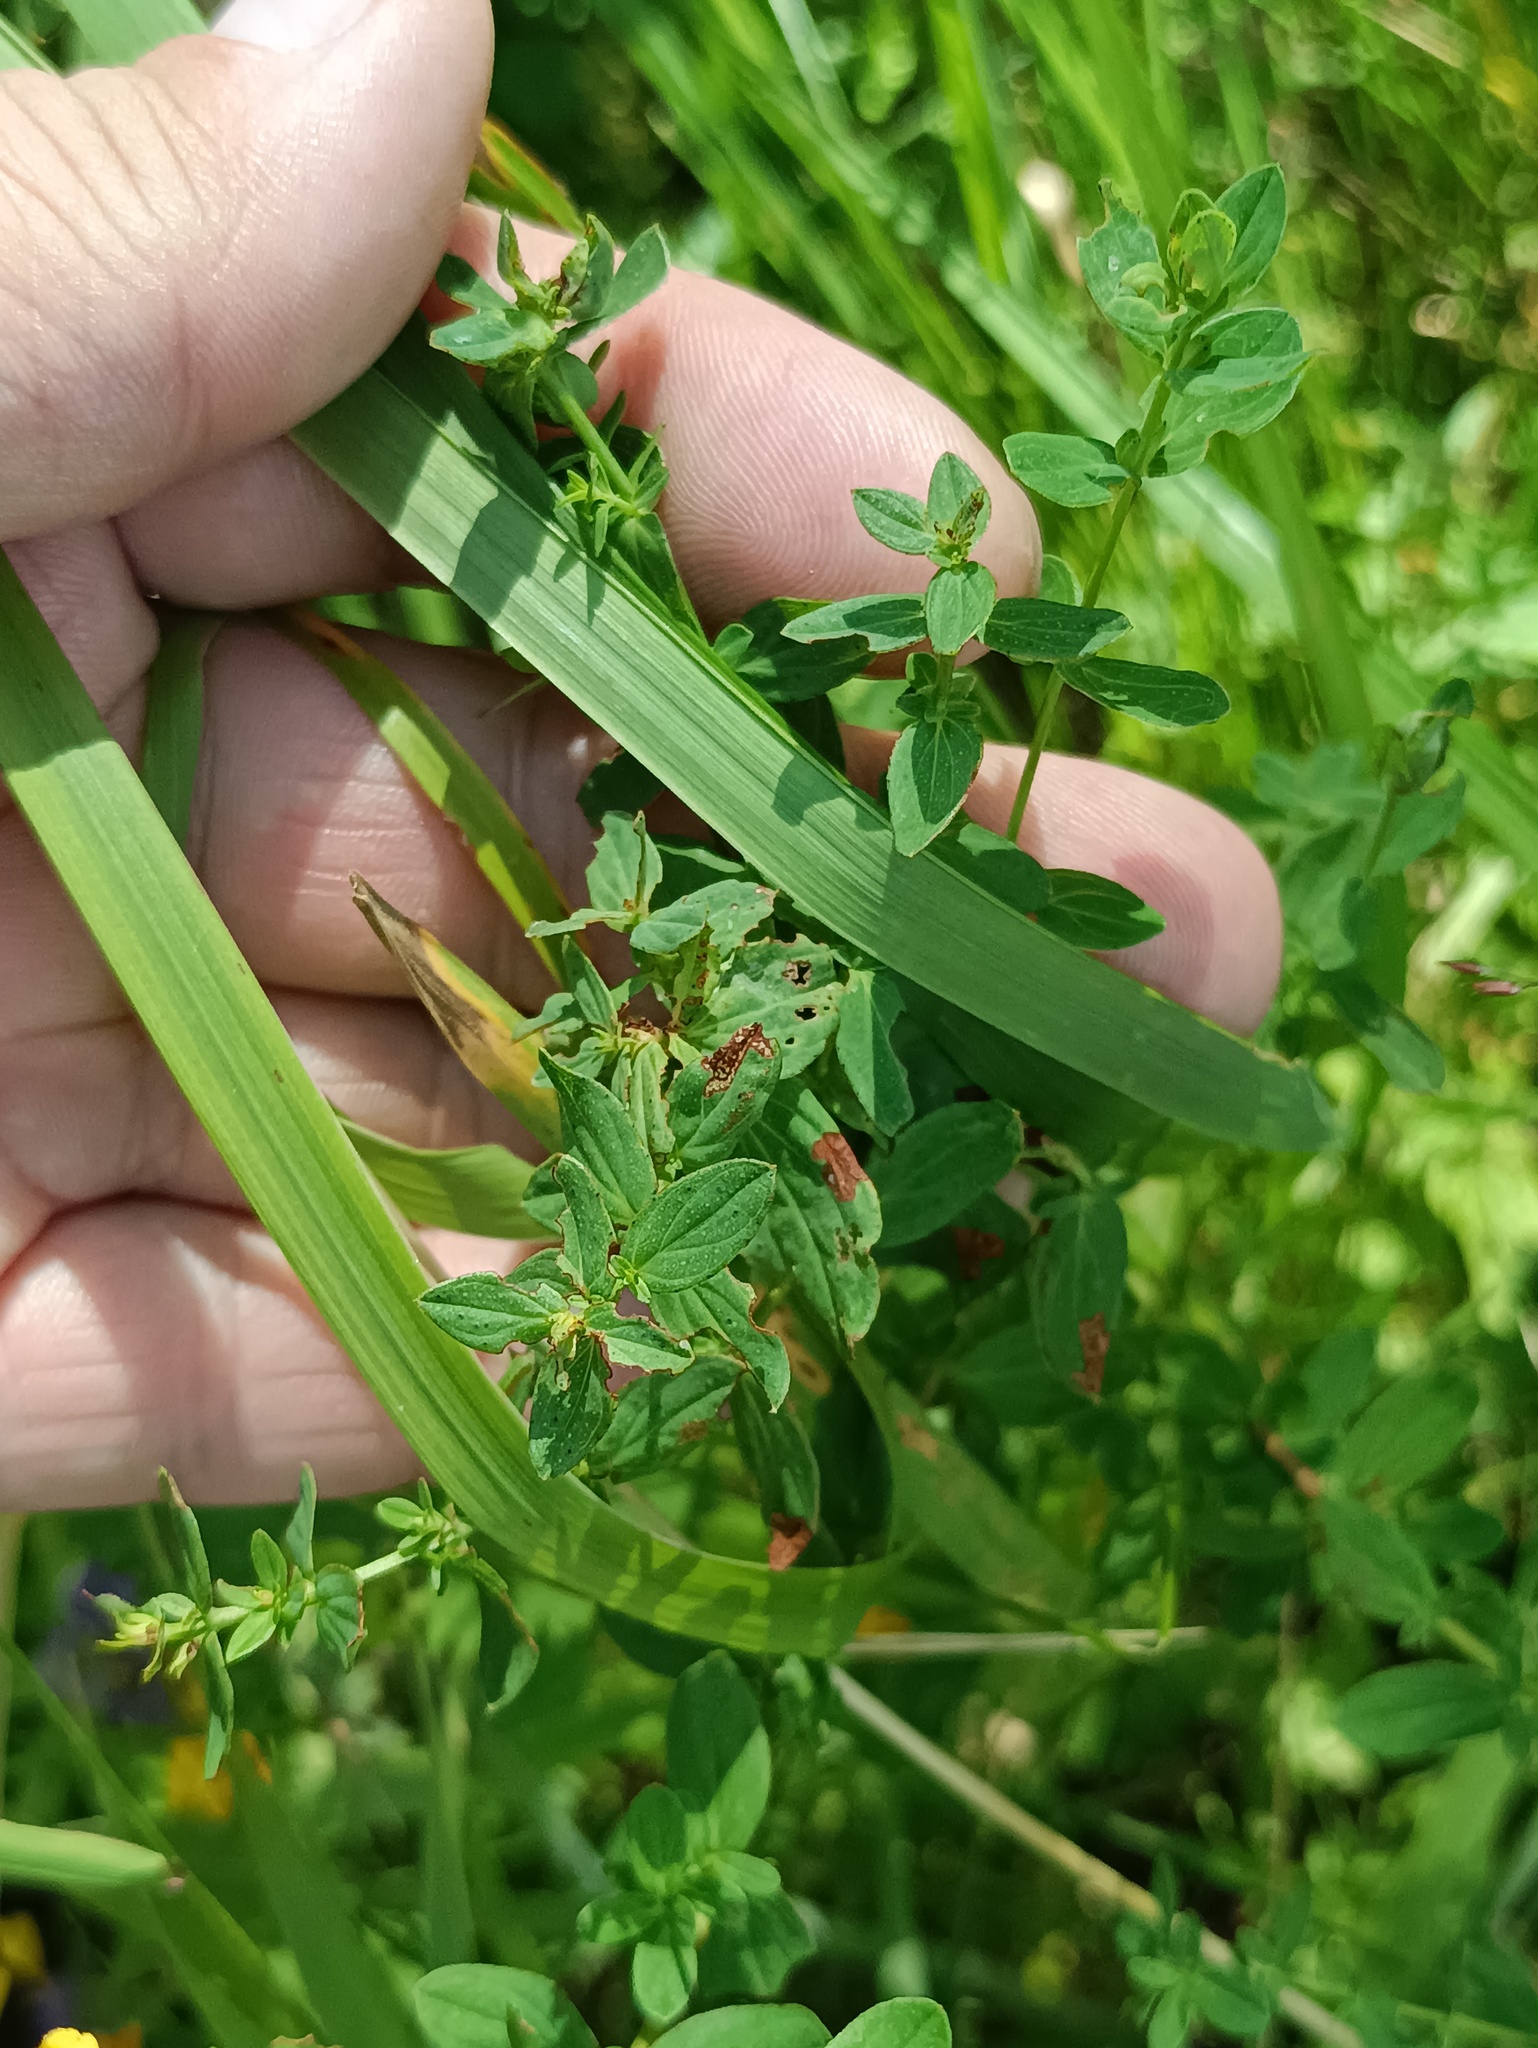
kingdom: Plantae
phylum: Tracheophyta
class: Magnoliopsida
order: Malpighiales
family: Hypericaceae
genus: Hypericum
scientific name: Hypericum perforatum
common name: Common st. johnswort
